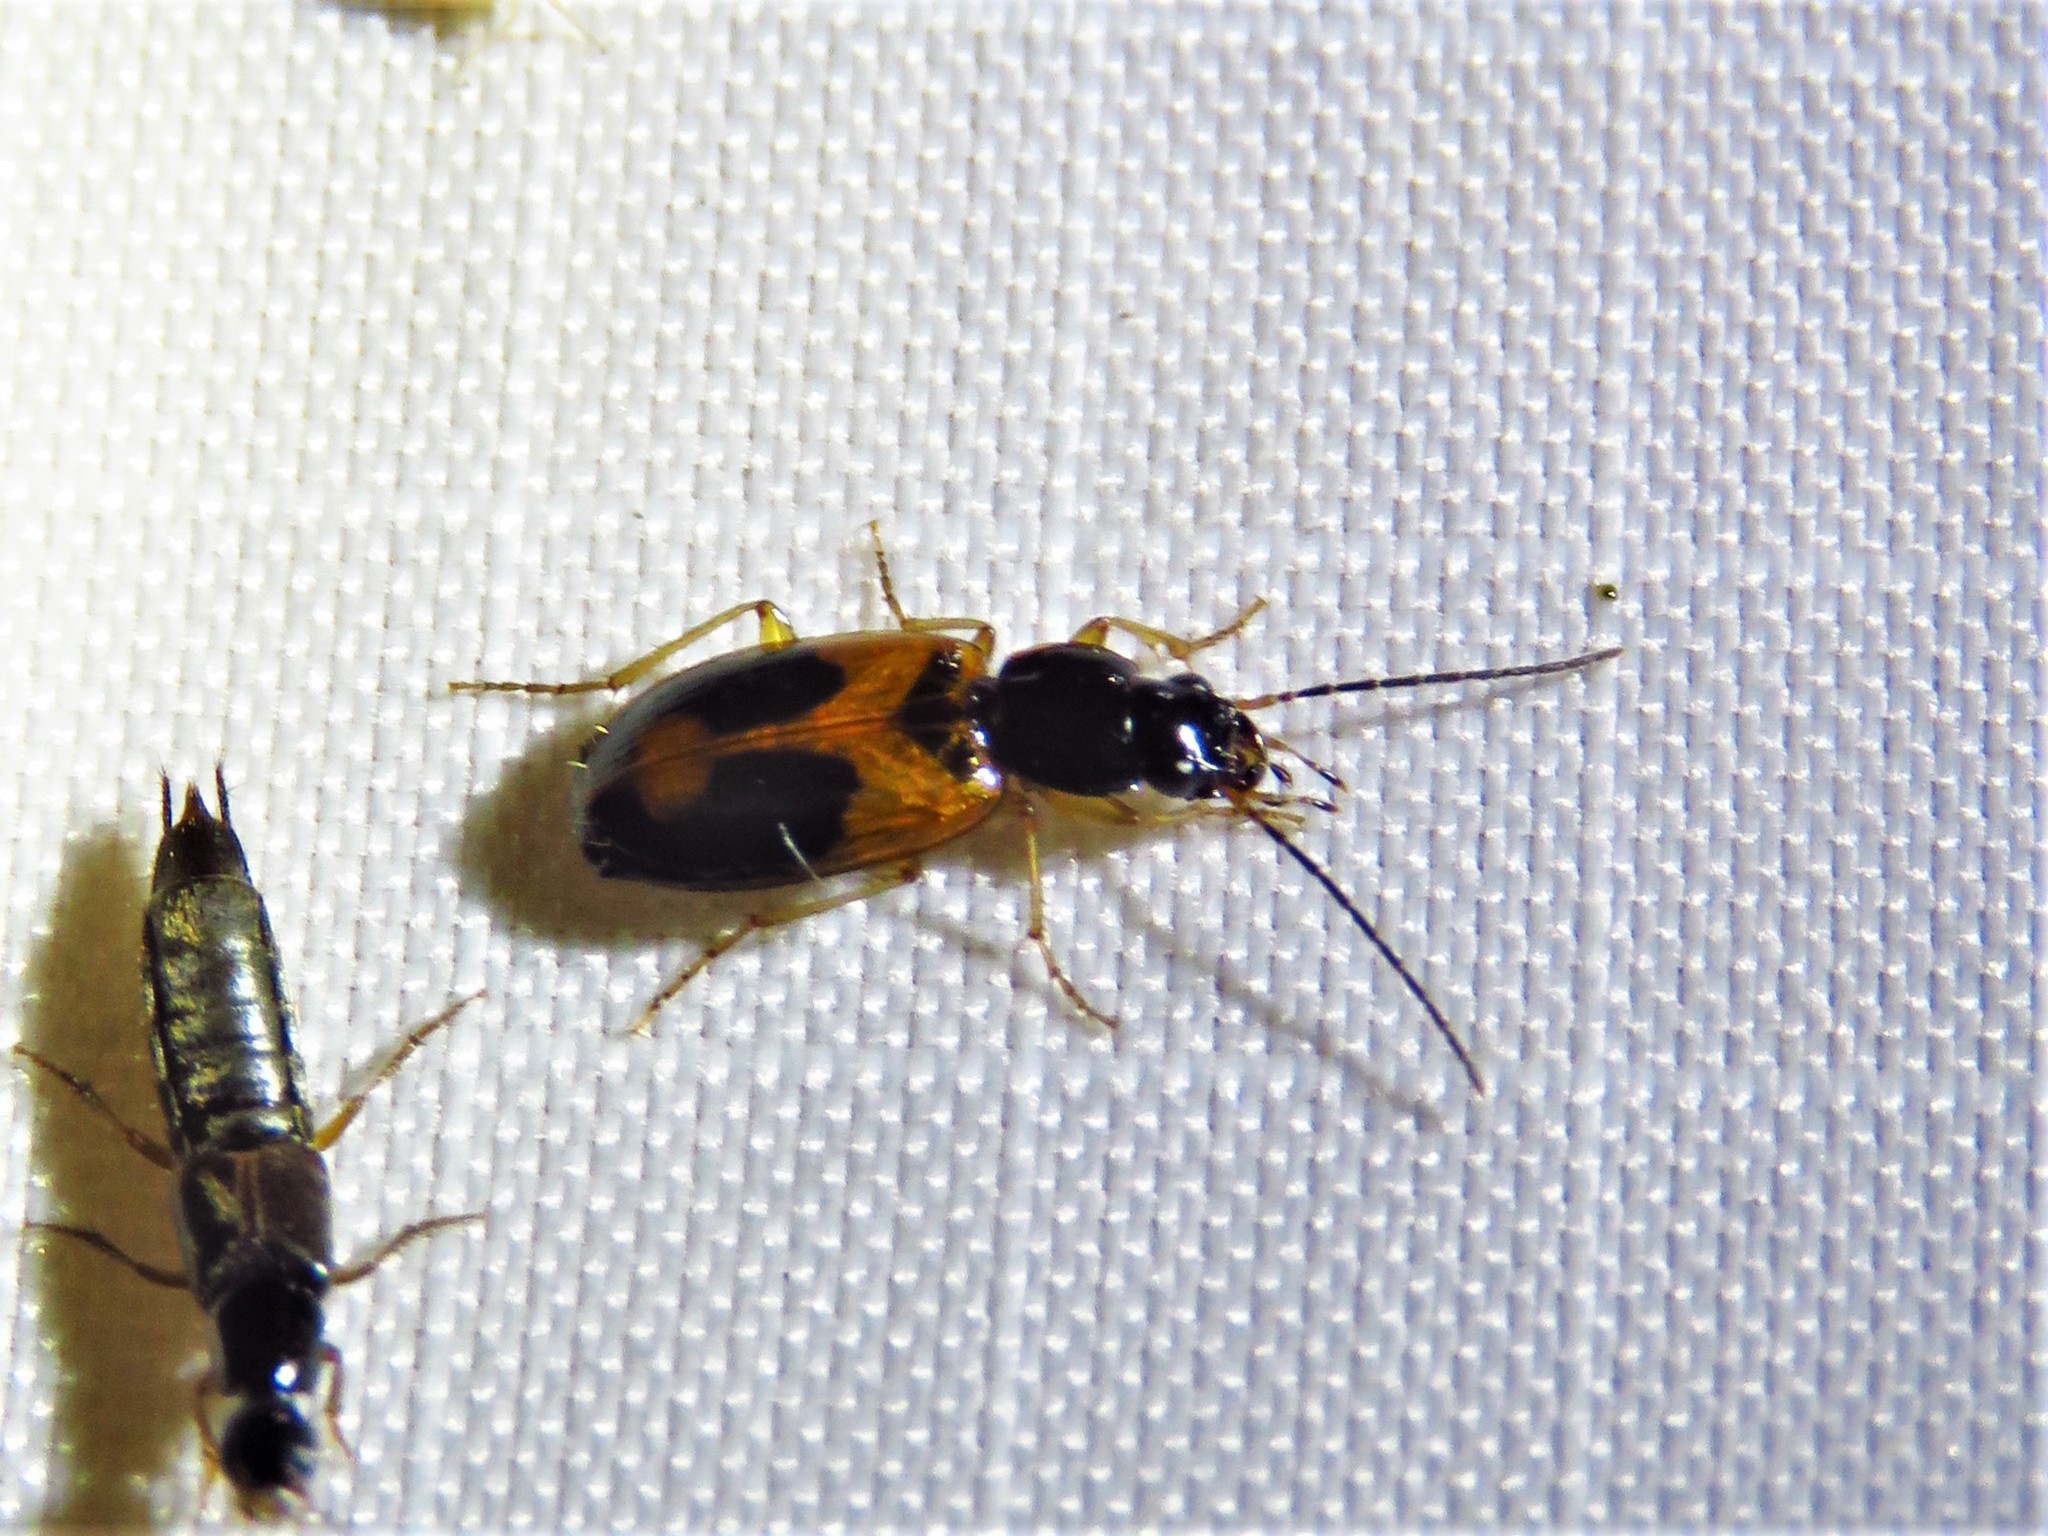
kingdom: Animalia
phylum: Arthropoda
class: Insecta
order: Coleoptera
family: Carabidae
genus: Badister
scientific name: Badister elegans
